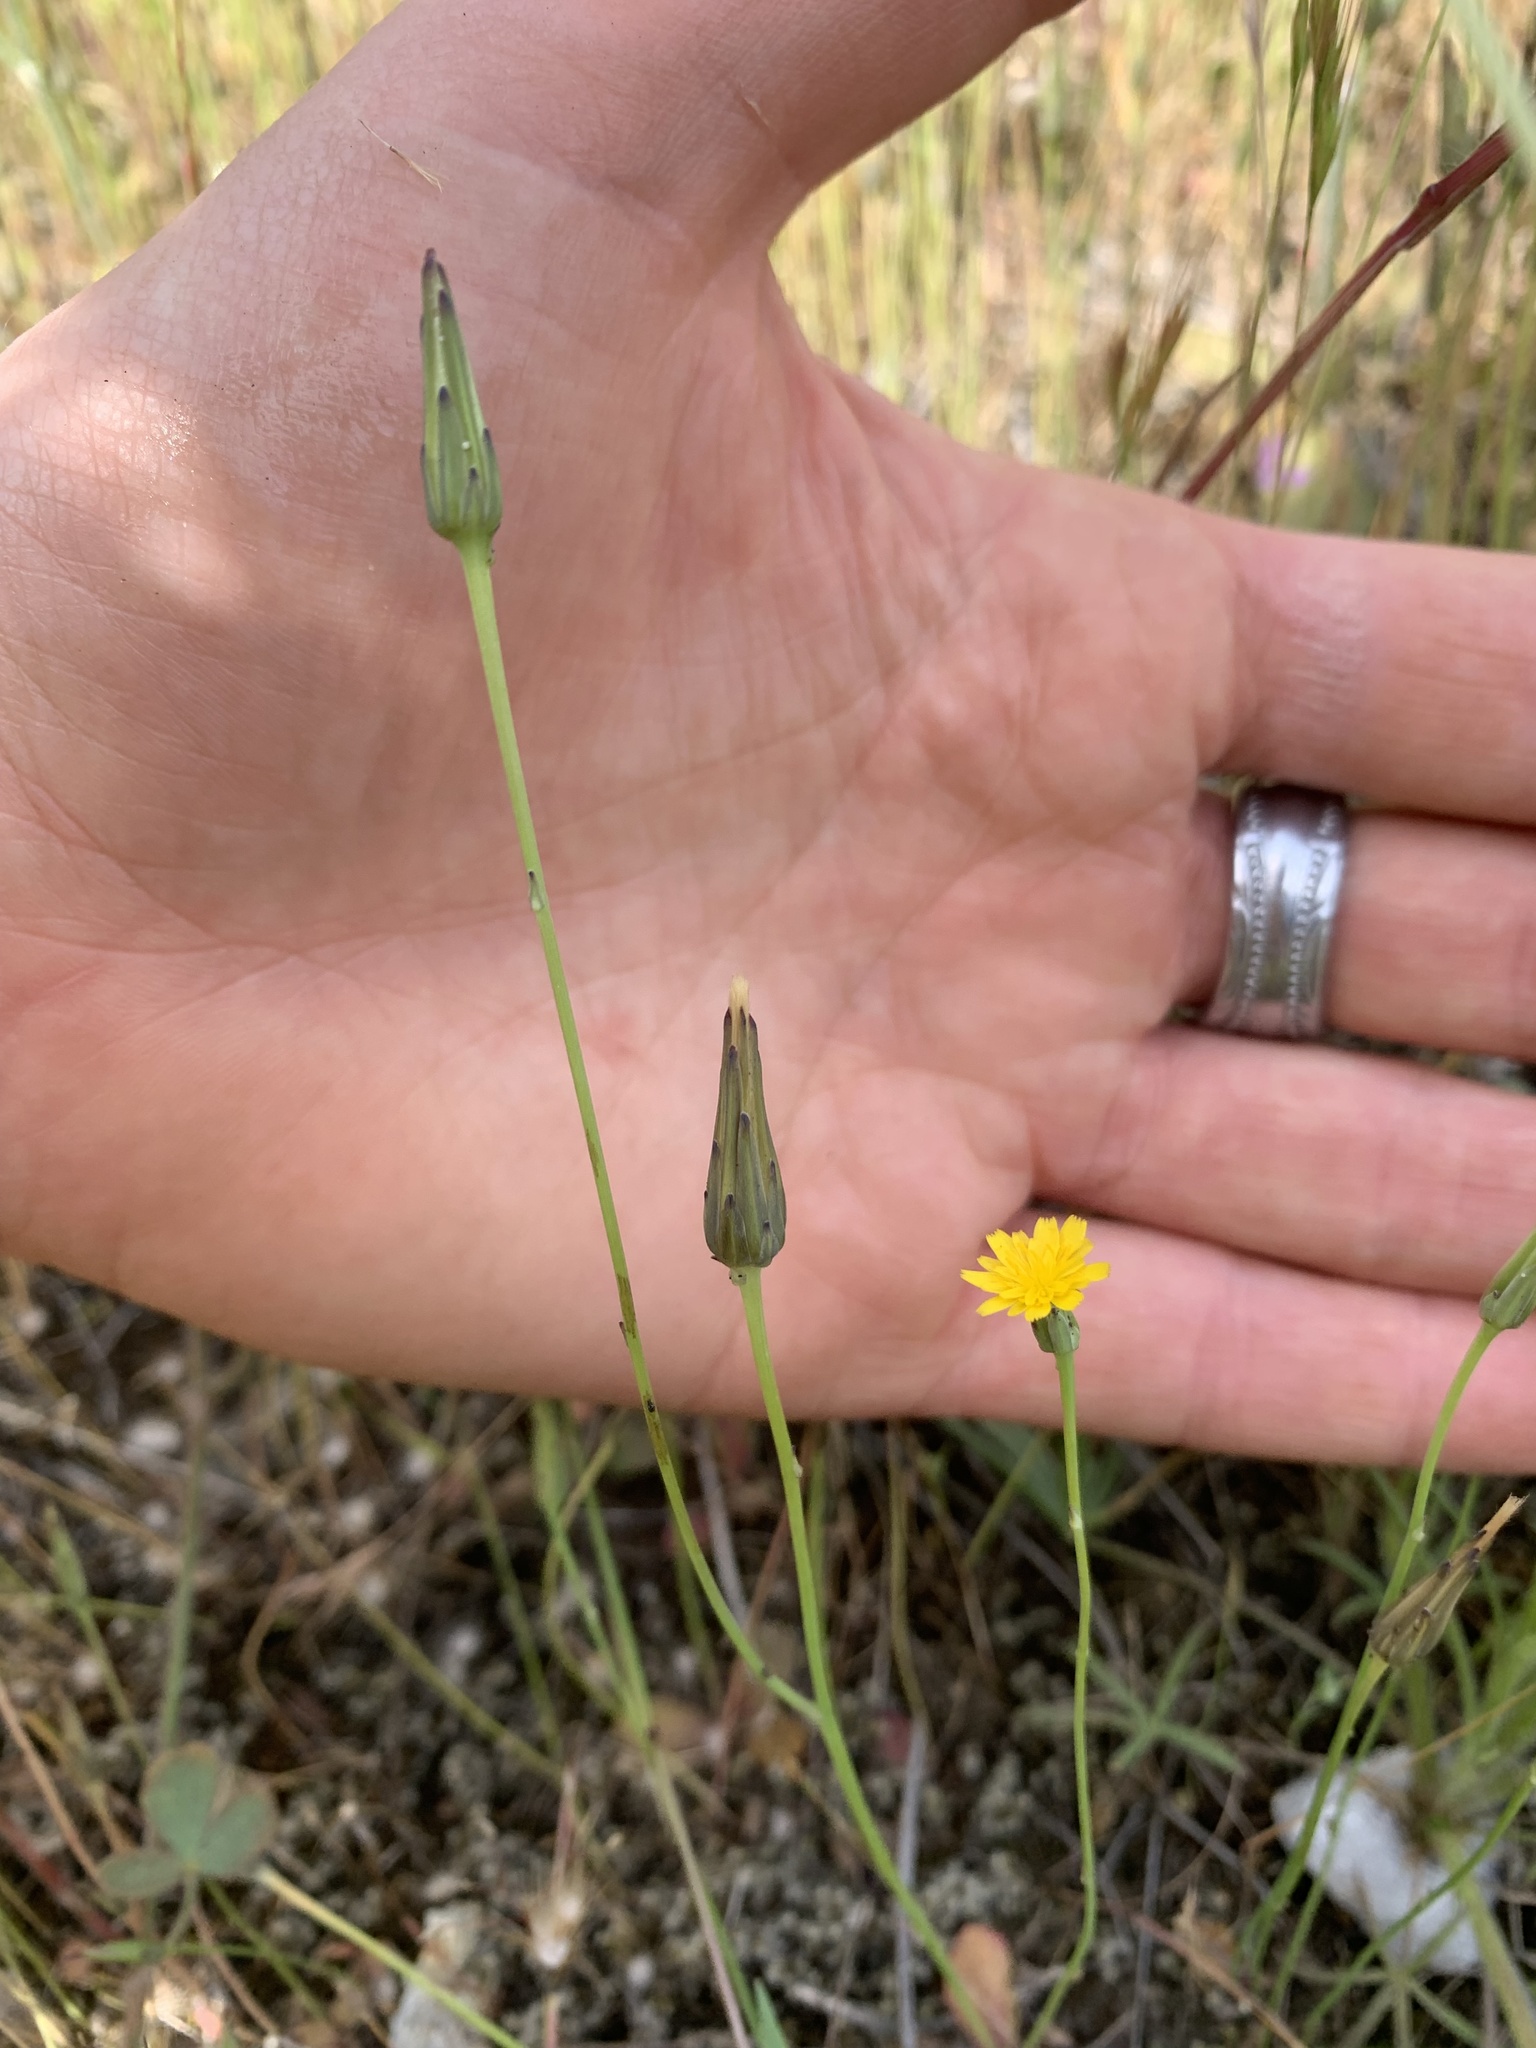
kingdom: Plantae
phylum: Tracheophyta
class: Magnoliopsida
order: Asterales
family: Asteraceae
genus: Hypochaeris
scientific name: Hypochaeris glabra
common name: Smooth catsear
